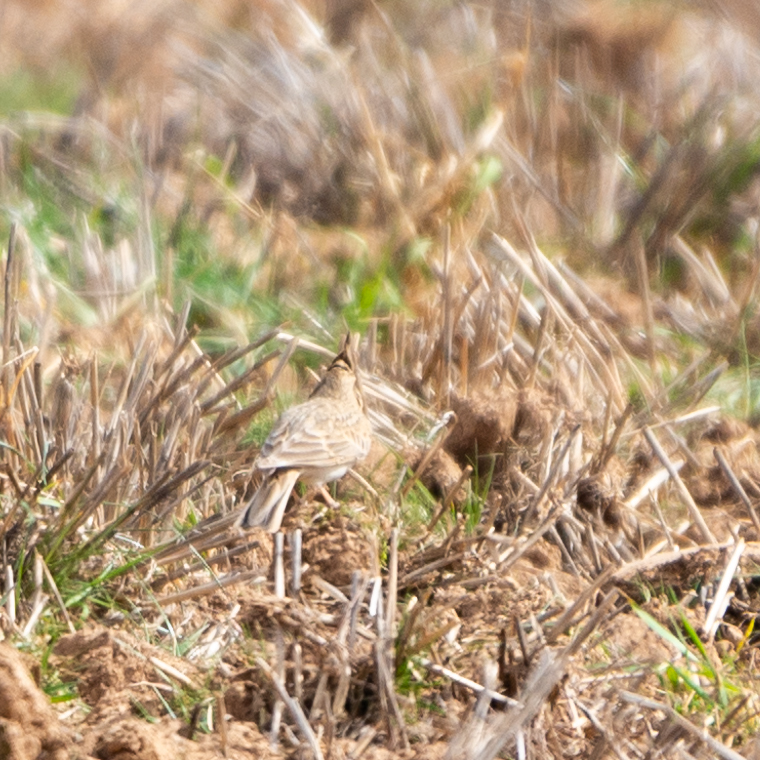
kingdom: Animalia
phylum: Chordata
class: Aves
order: Passeriformes
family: Alaudidae
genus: Galerida
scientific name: Galerida cristata
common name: Crested lark
